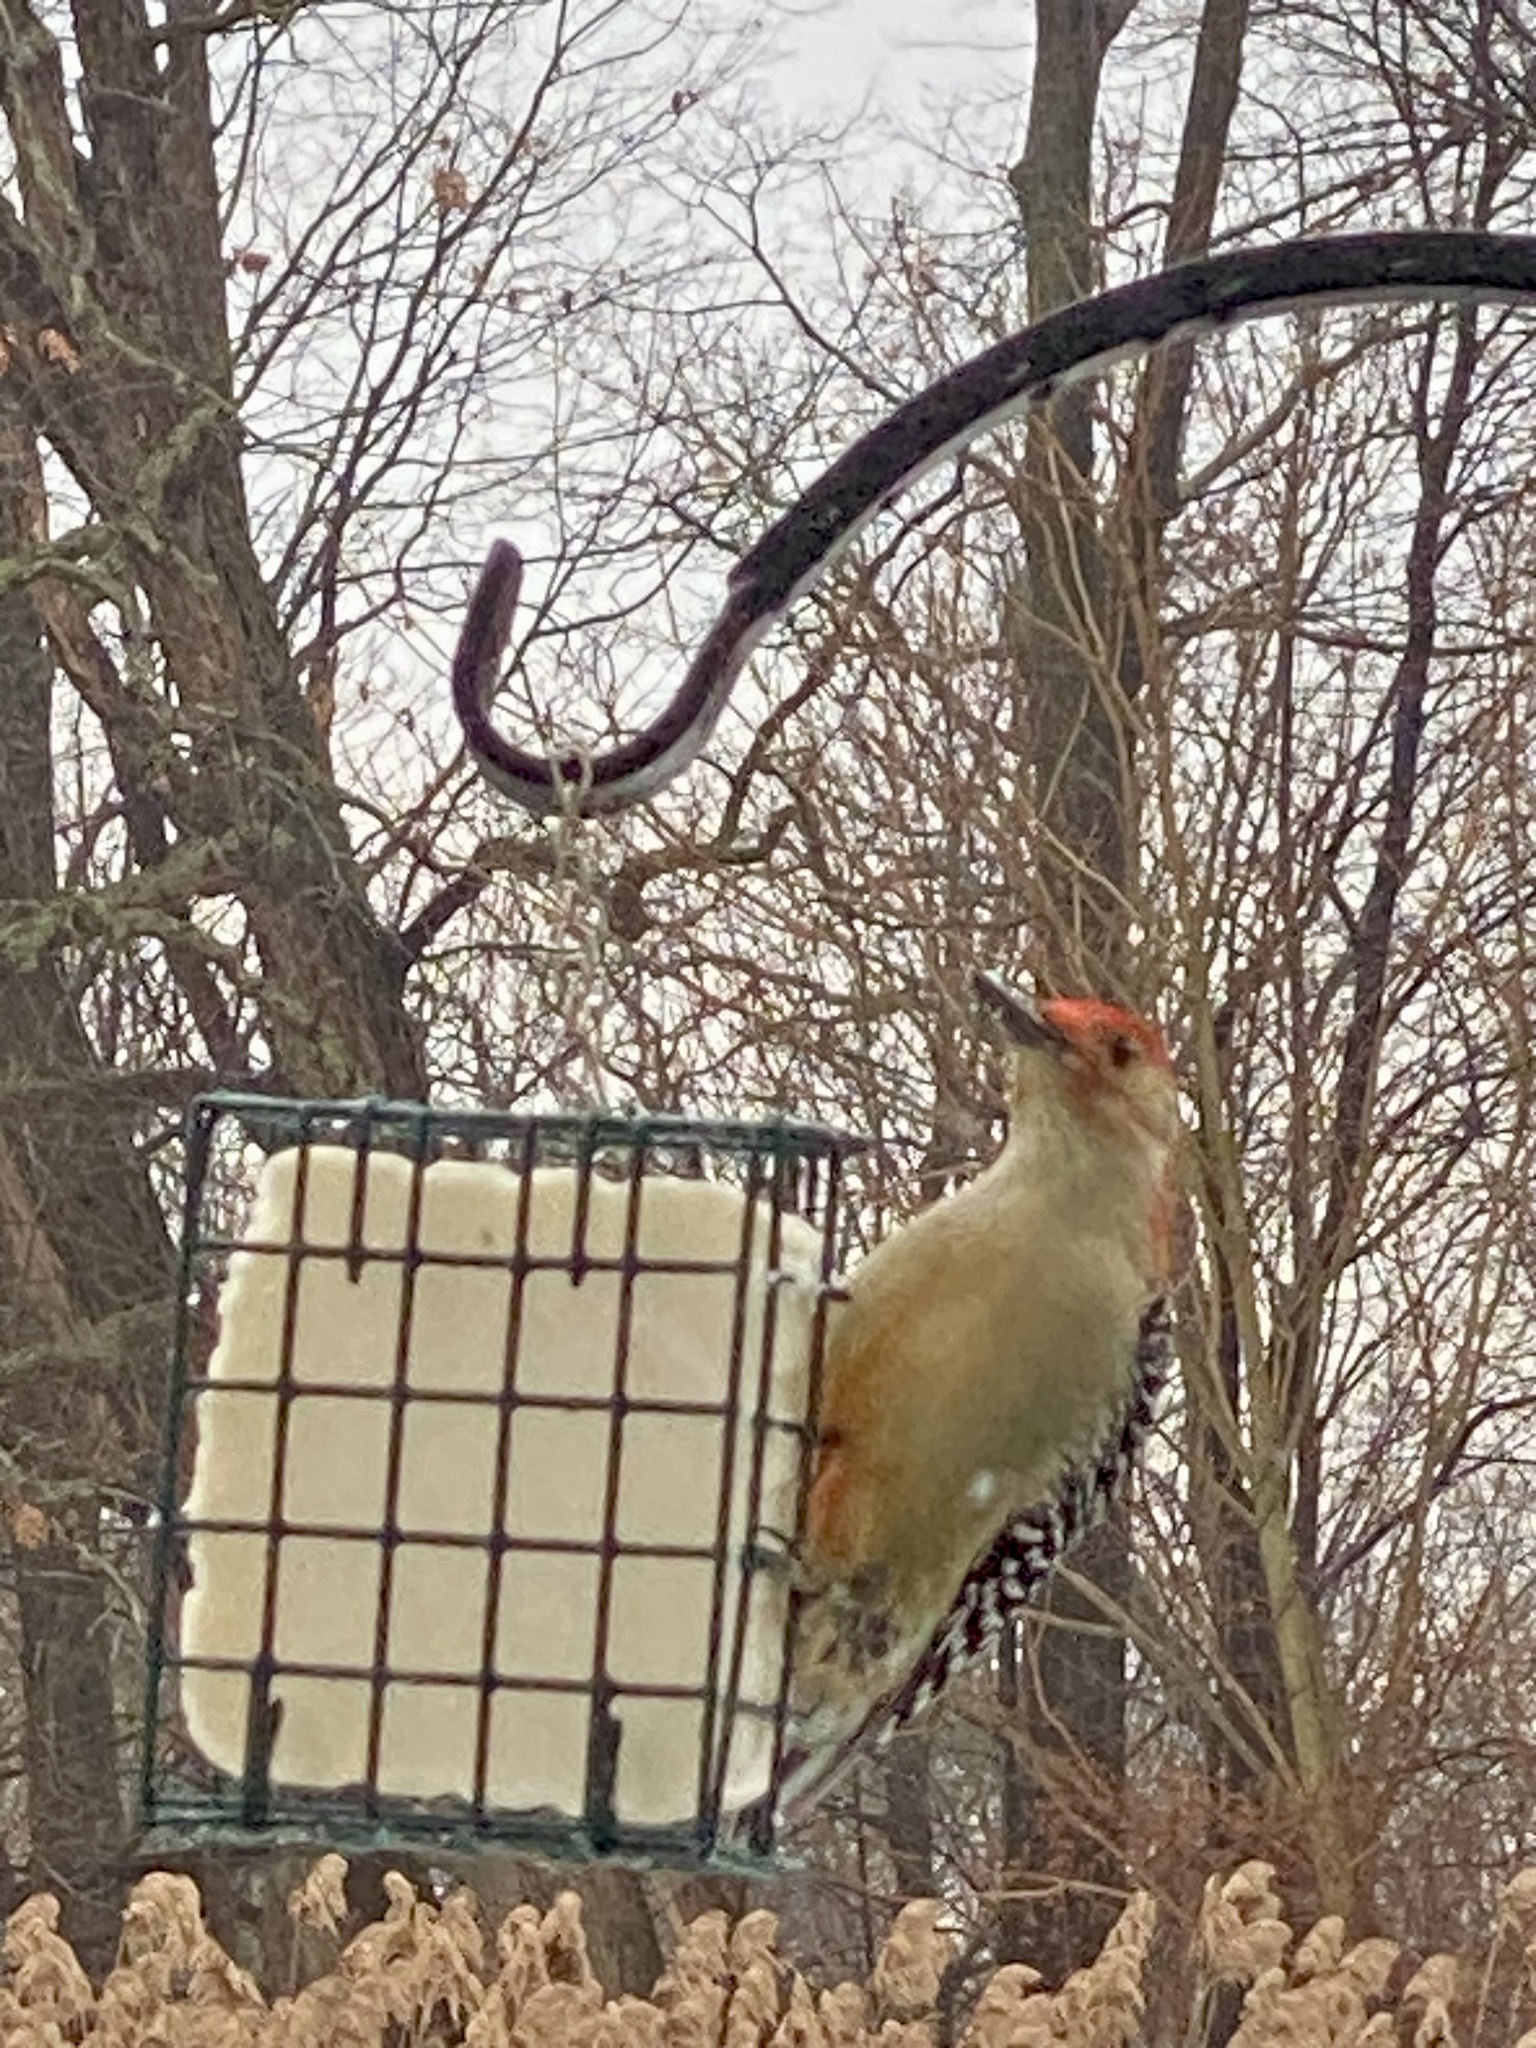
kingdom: Animalia
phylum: Chordata
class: Aves
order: Piciformes
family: Picidae
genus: Melanerpes
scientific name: Melanerpes carolinus
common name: Red-bellied woodpecker
